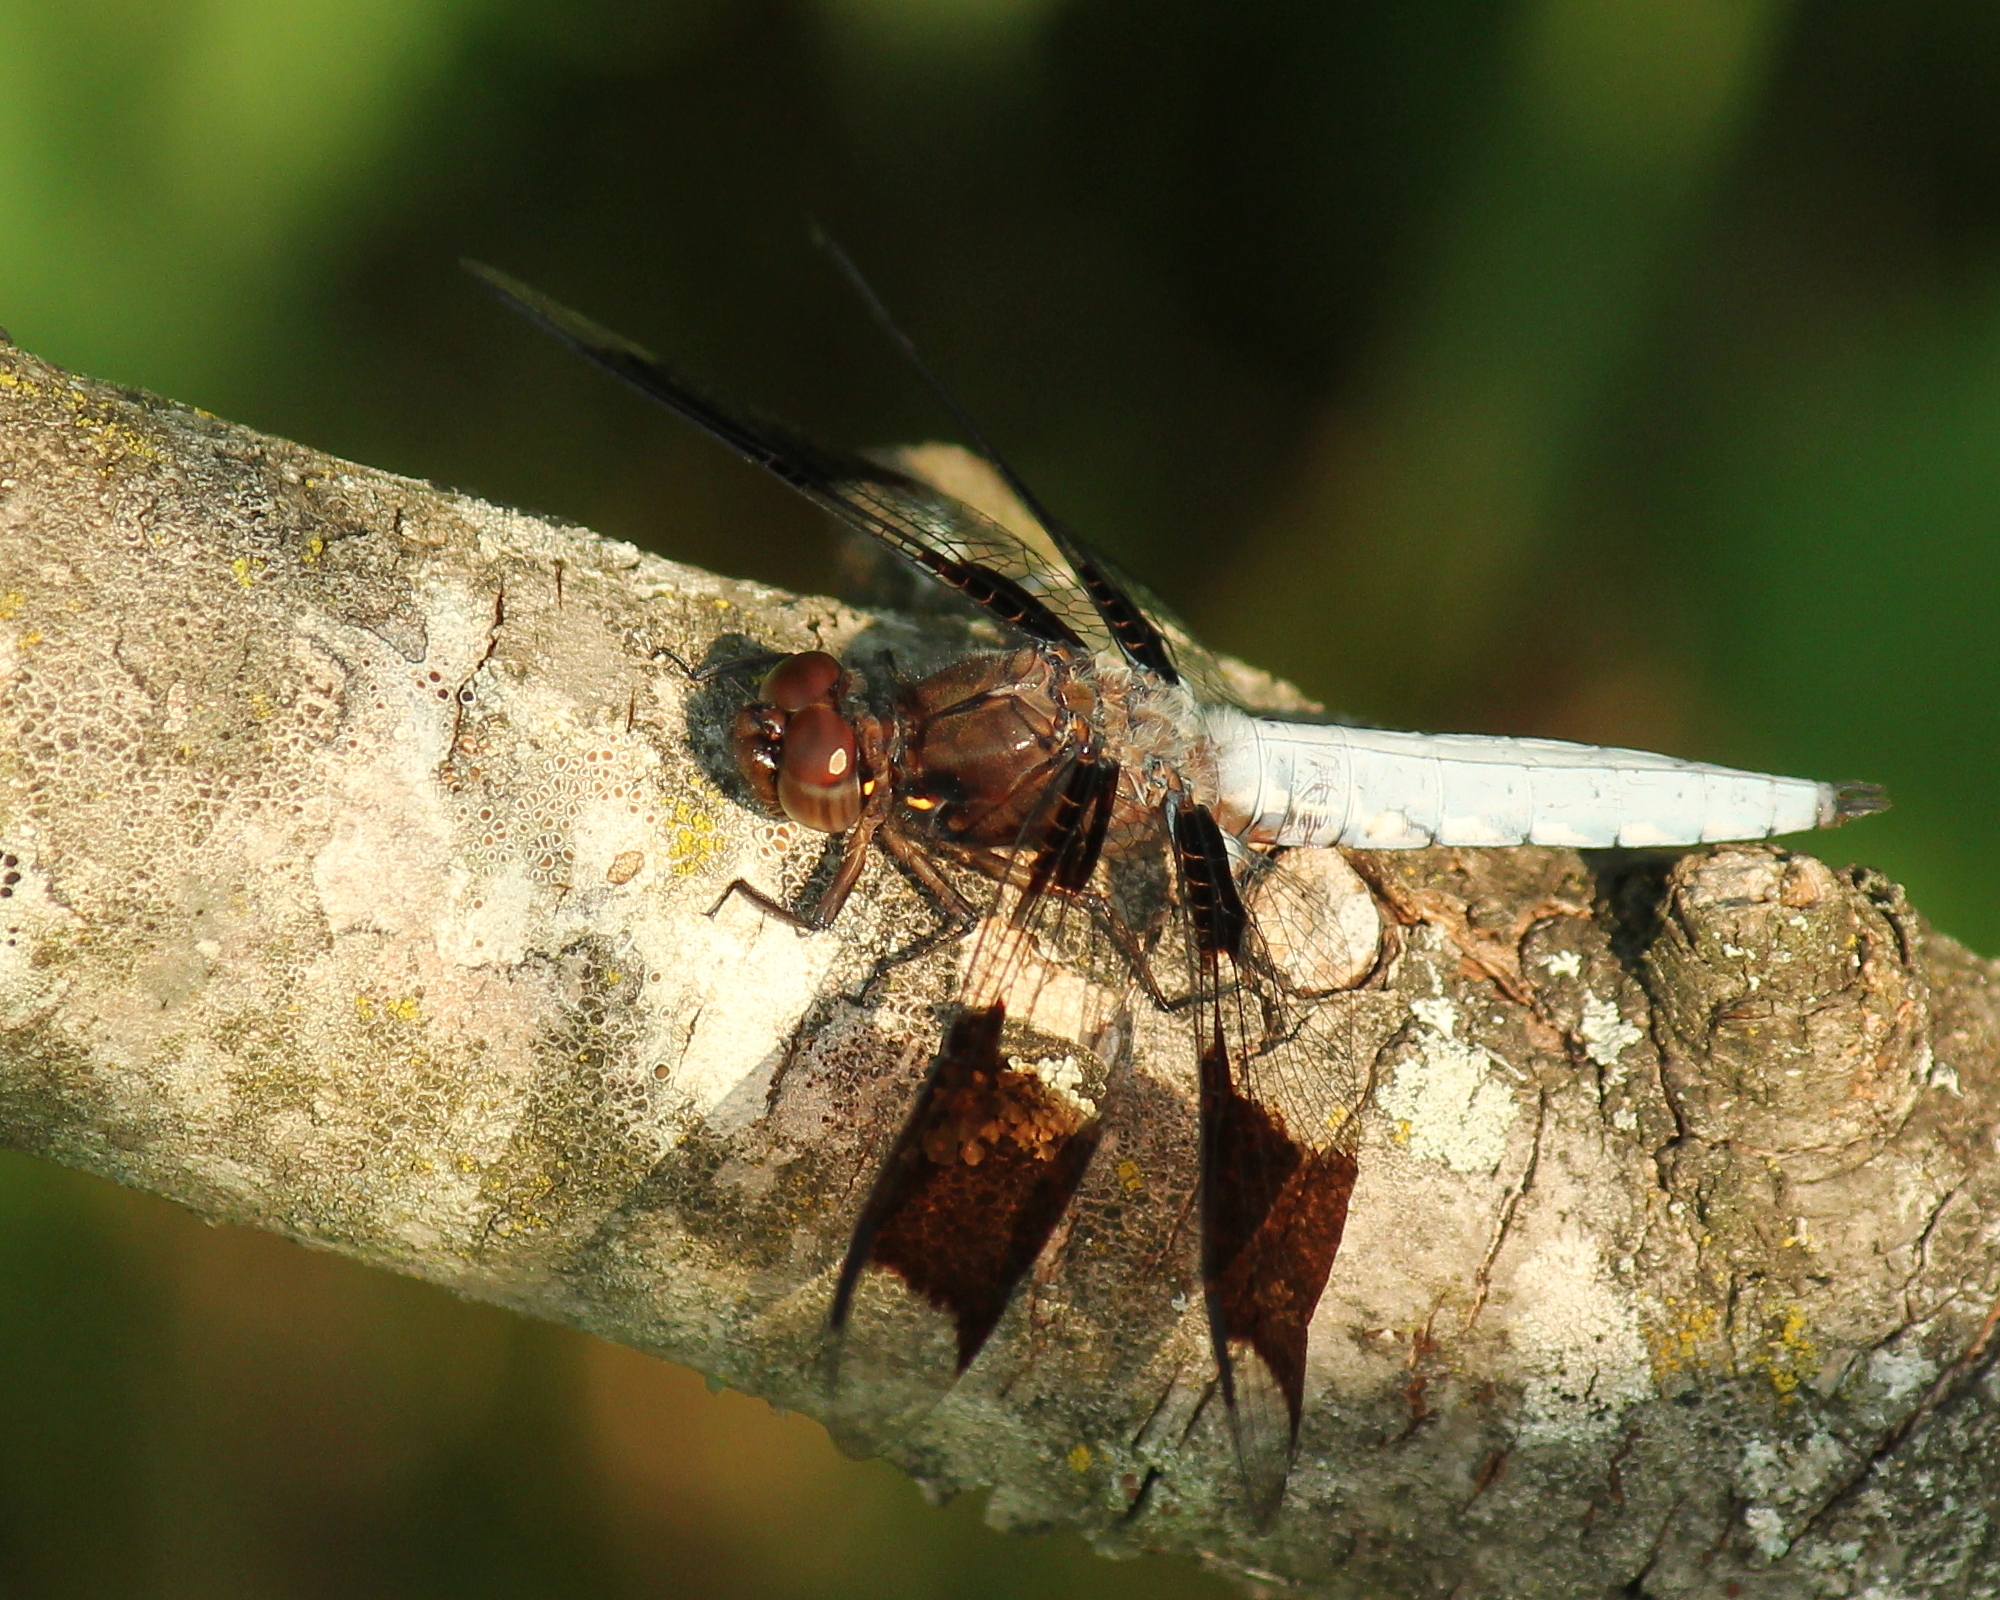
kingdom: Animalia
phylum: Arthropoda
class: Insecta
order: Odonata
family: Libellulidae
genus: Plathemis
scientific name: Plathemis lydia
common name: Common whitetail
